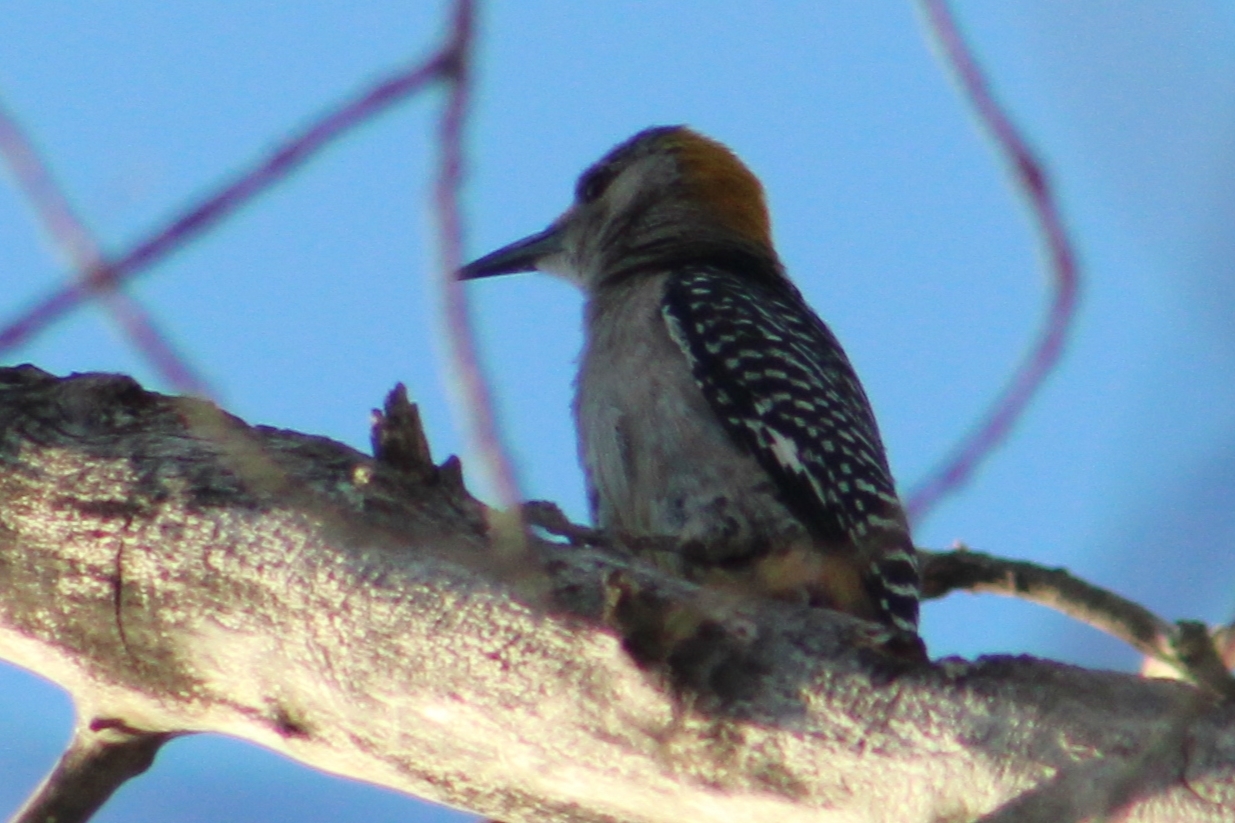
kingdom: Animalia
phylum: Chordata
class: Aves
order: Piciformes
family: Picidae
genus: Melanerpes
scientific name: Melanerpes aurifrons
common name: Golden-fronted woodpecker
